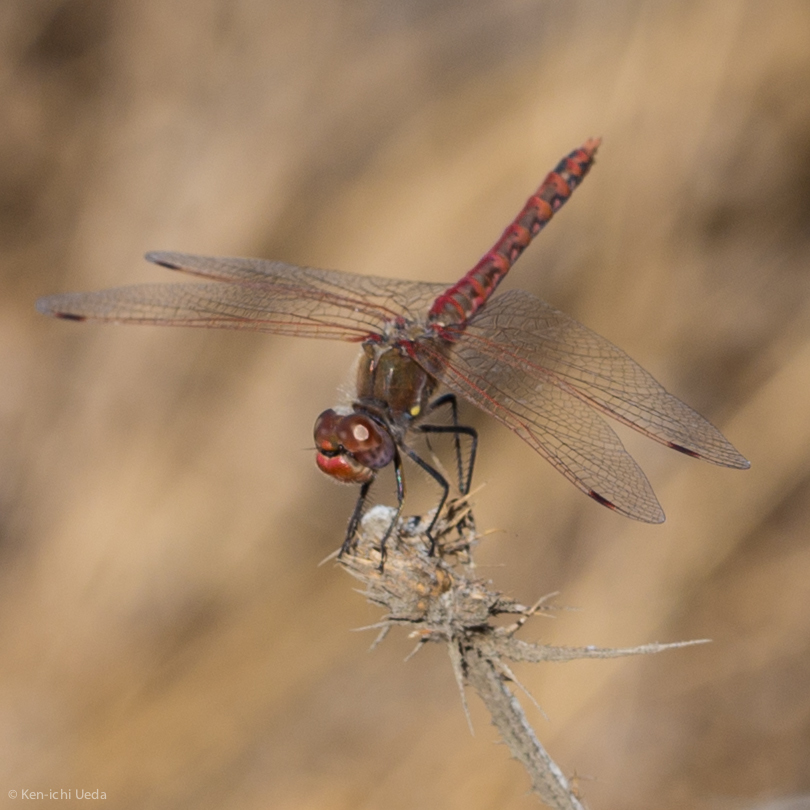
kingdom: Animalia
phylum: Arthropoda
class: Insecta
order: Odonata
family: Libellulidae
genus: Sympetrum
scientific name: Sympetrum corruptum
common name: Variegated meadowhawk
